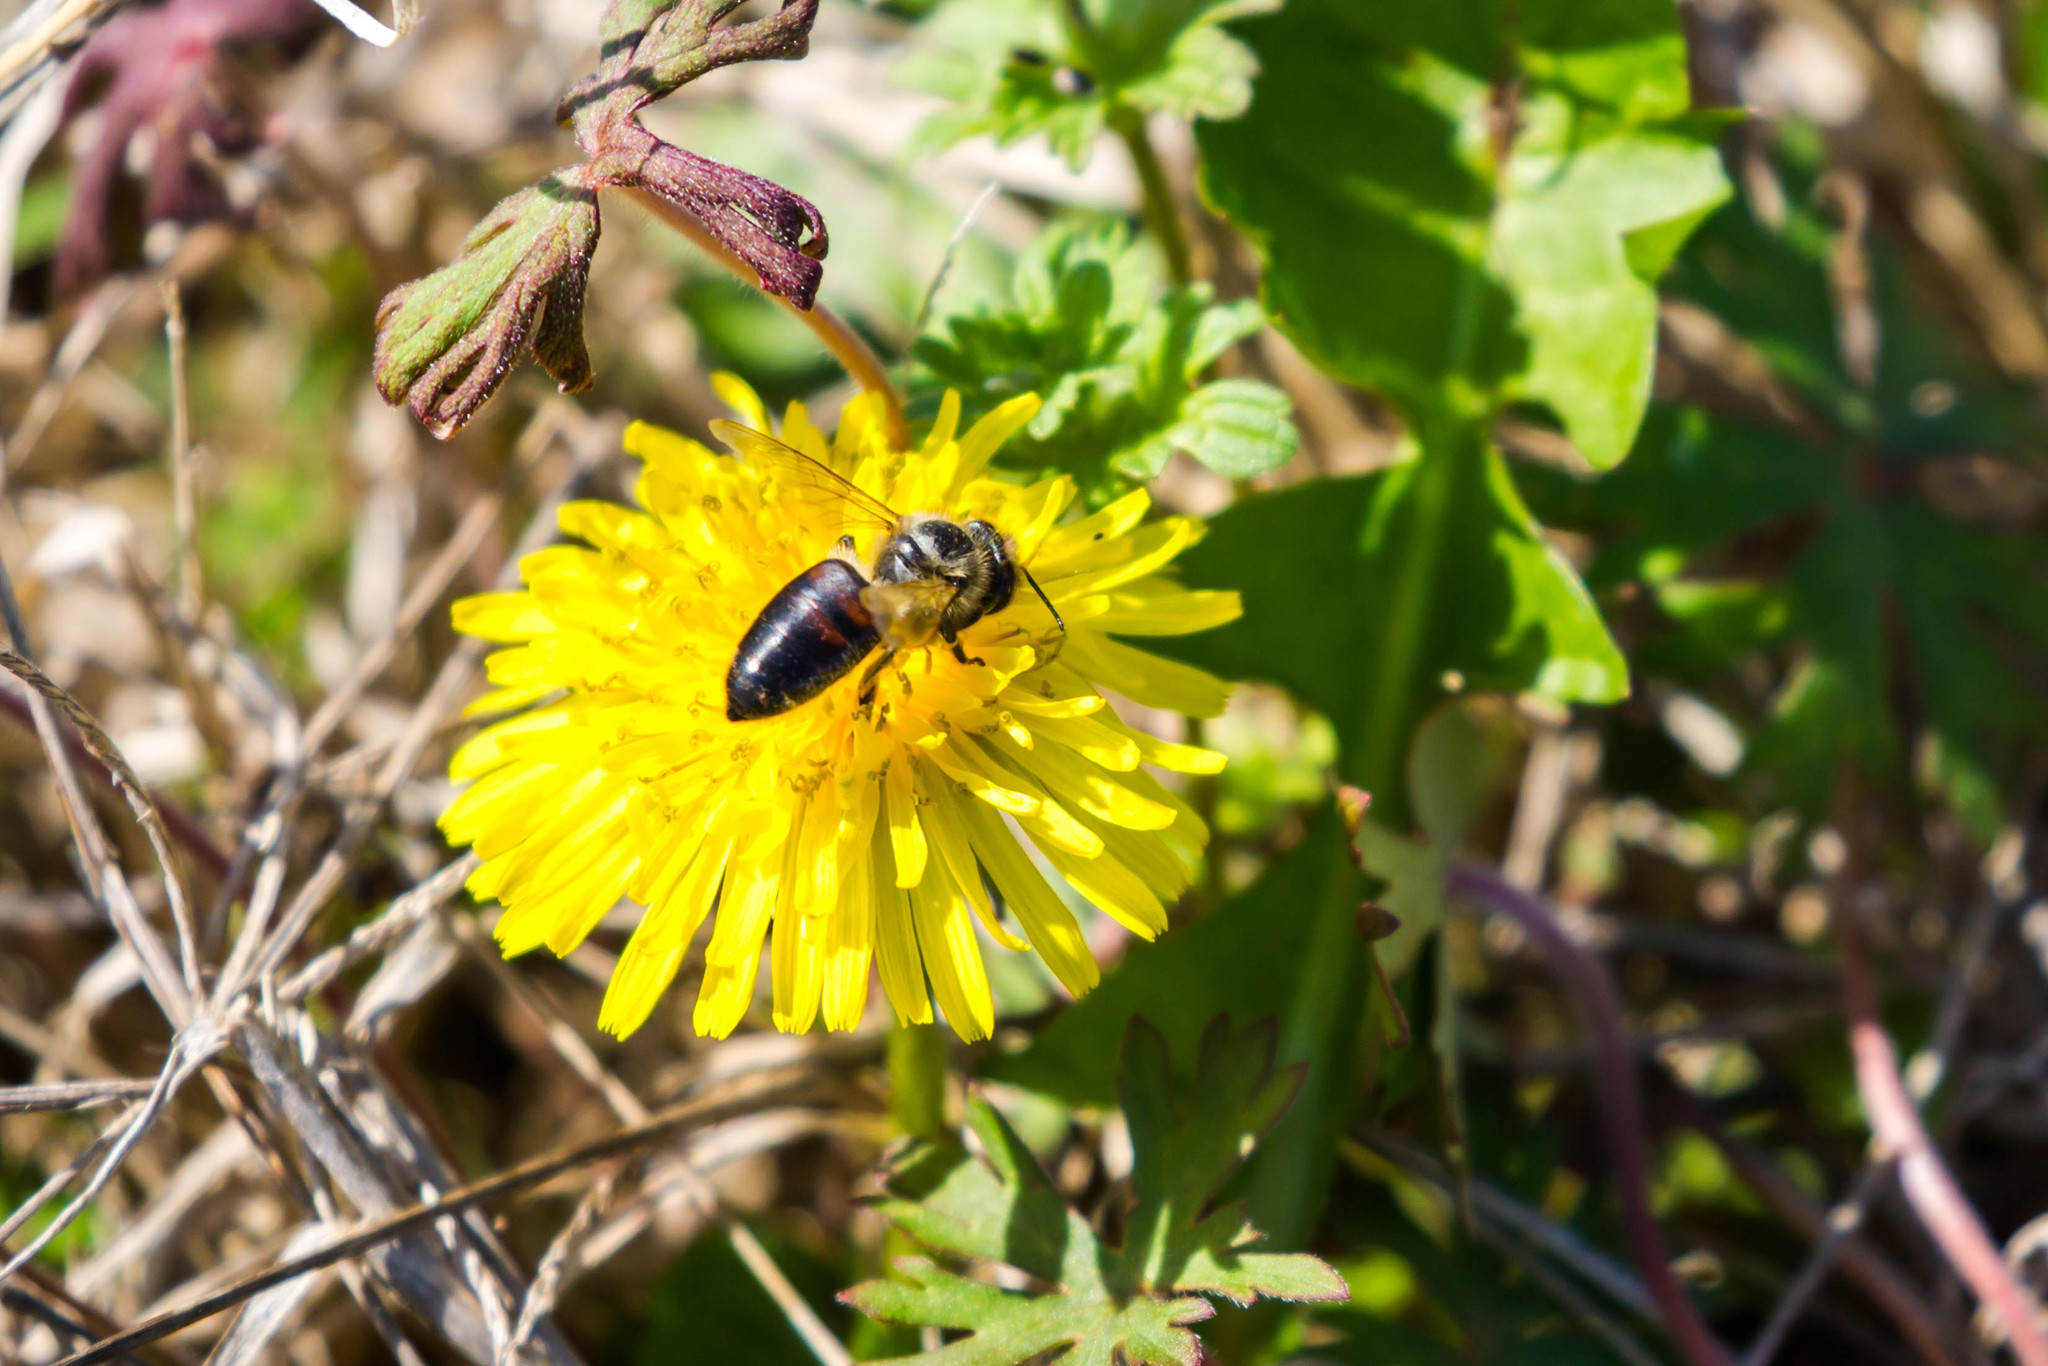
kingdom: Animalia
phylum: Arthropoda
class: Insecta
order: Hymenoptera
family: Apidae
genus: Apis
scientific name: Apis mellifera
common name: Honey bee
